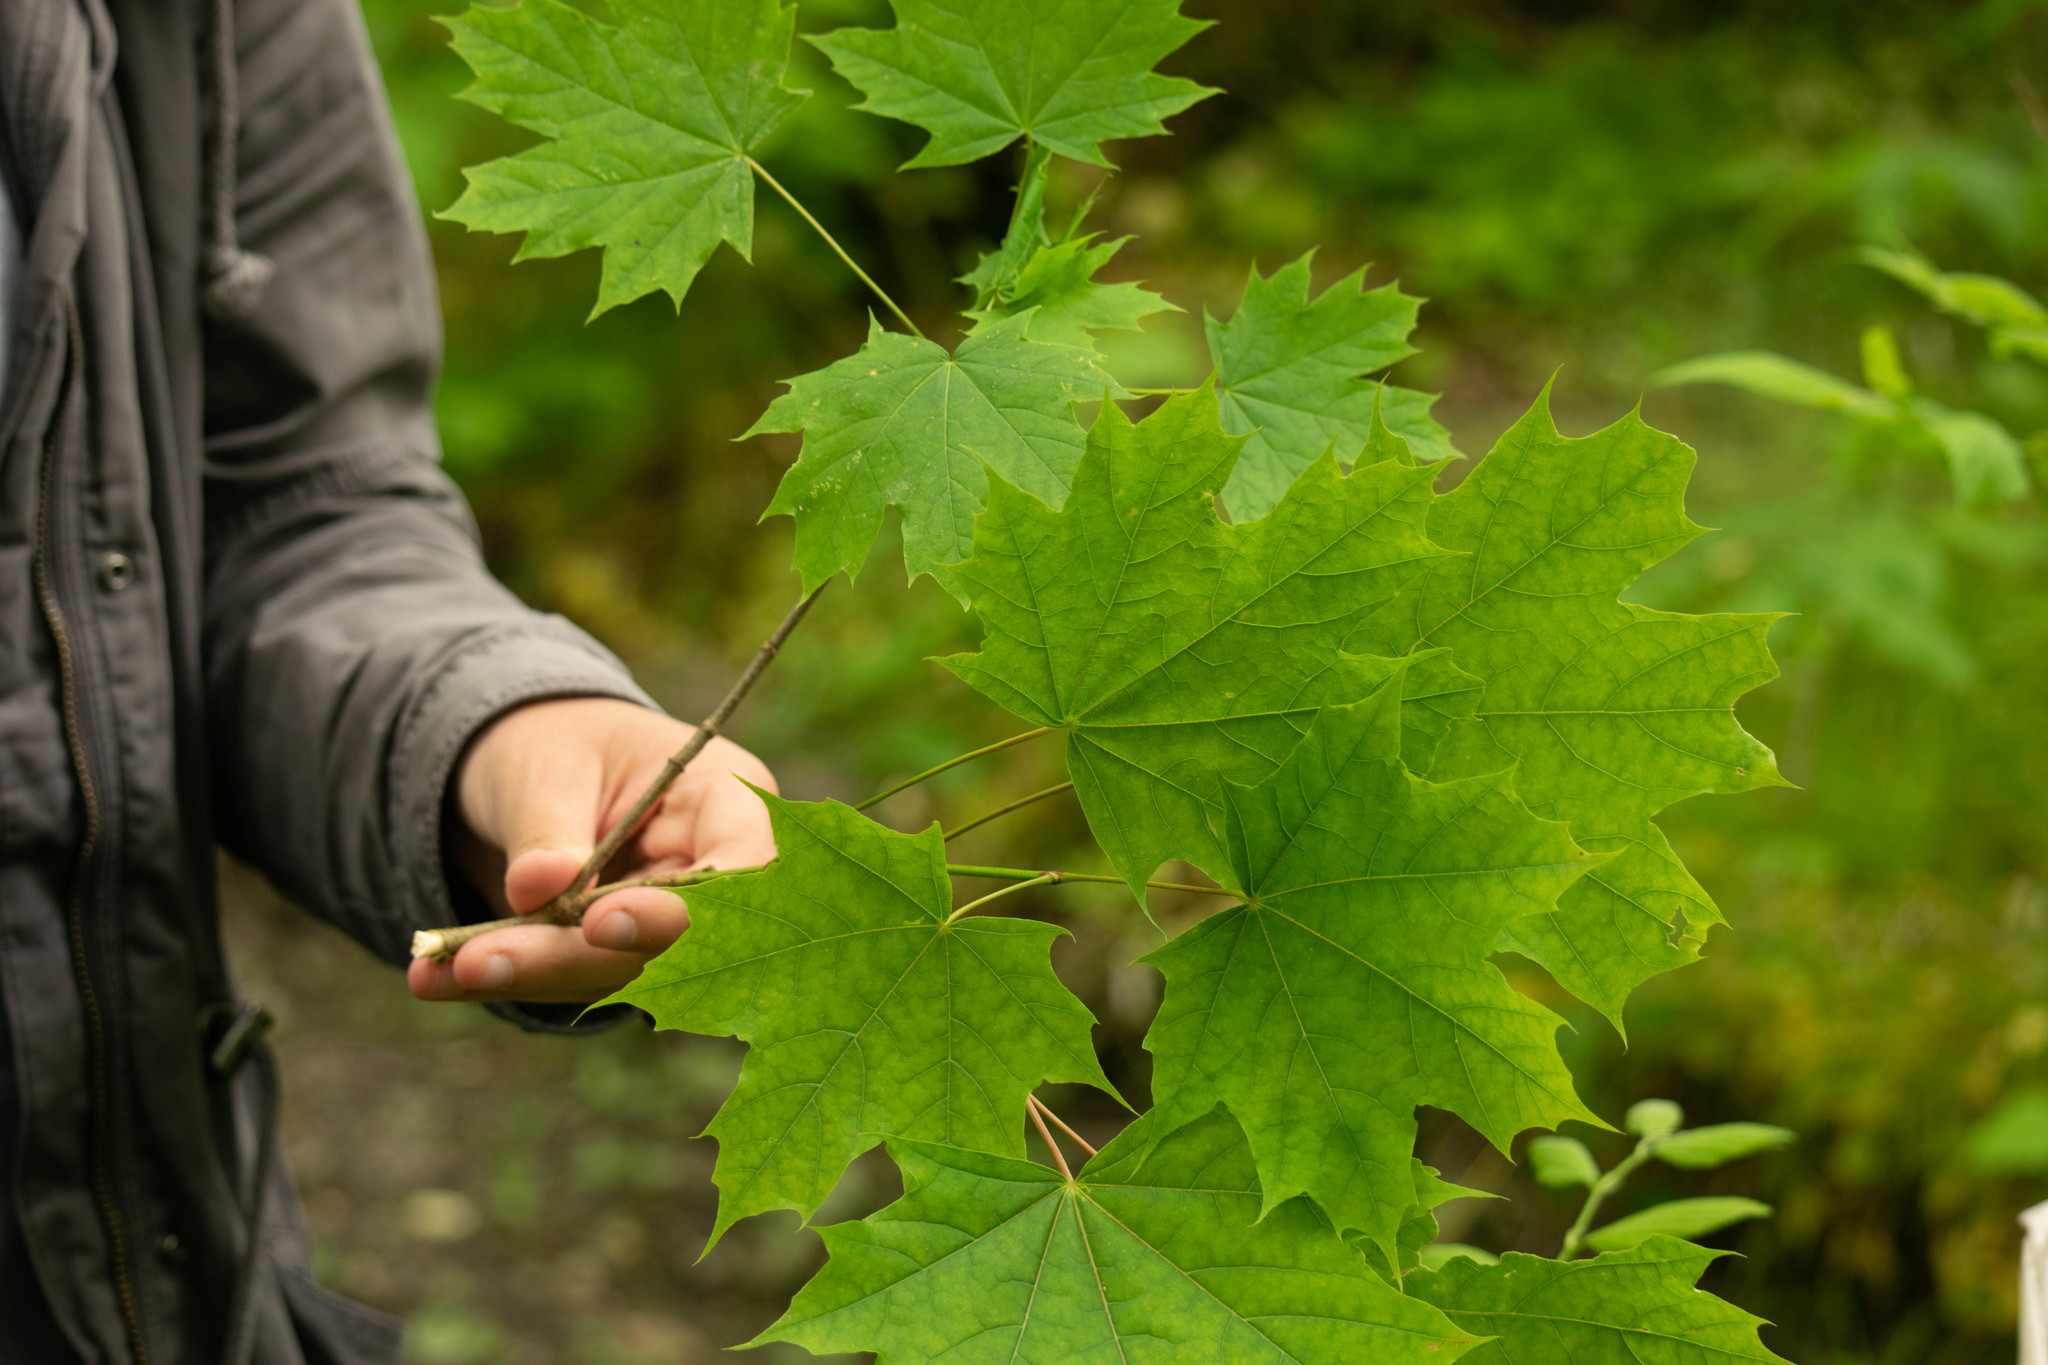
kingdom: Plantae
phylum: Tracheophyta
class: Magnoliopsida
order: Sapindales
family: Sapindaceae
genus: Acer
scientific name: Acer platanoides
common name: Norway maple
